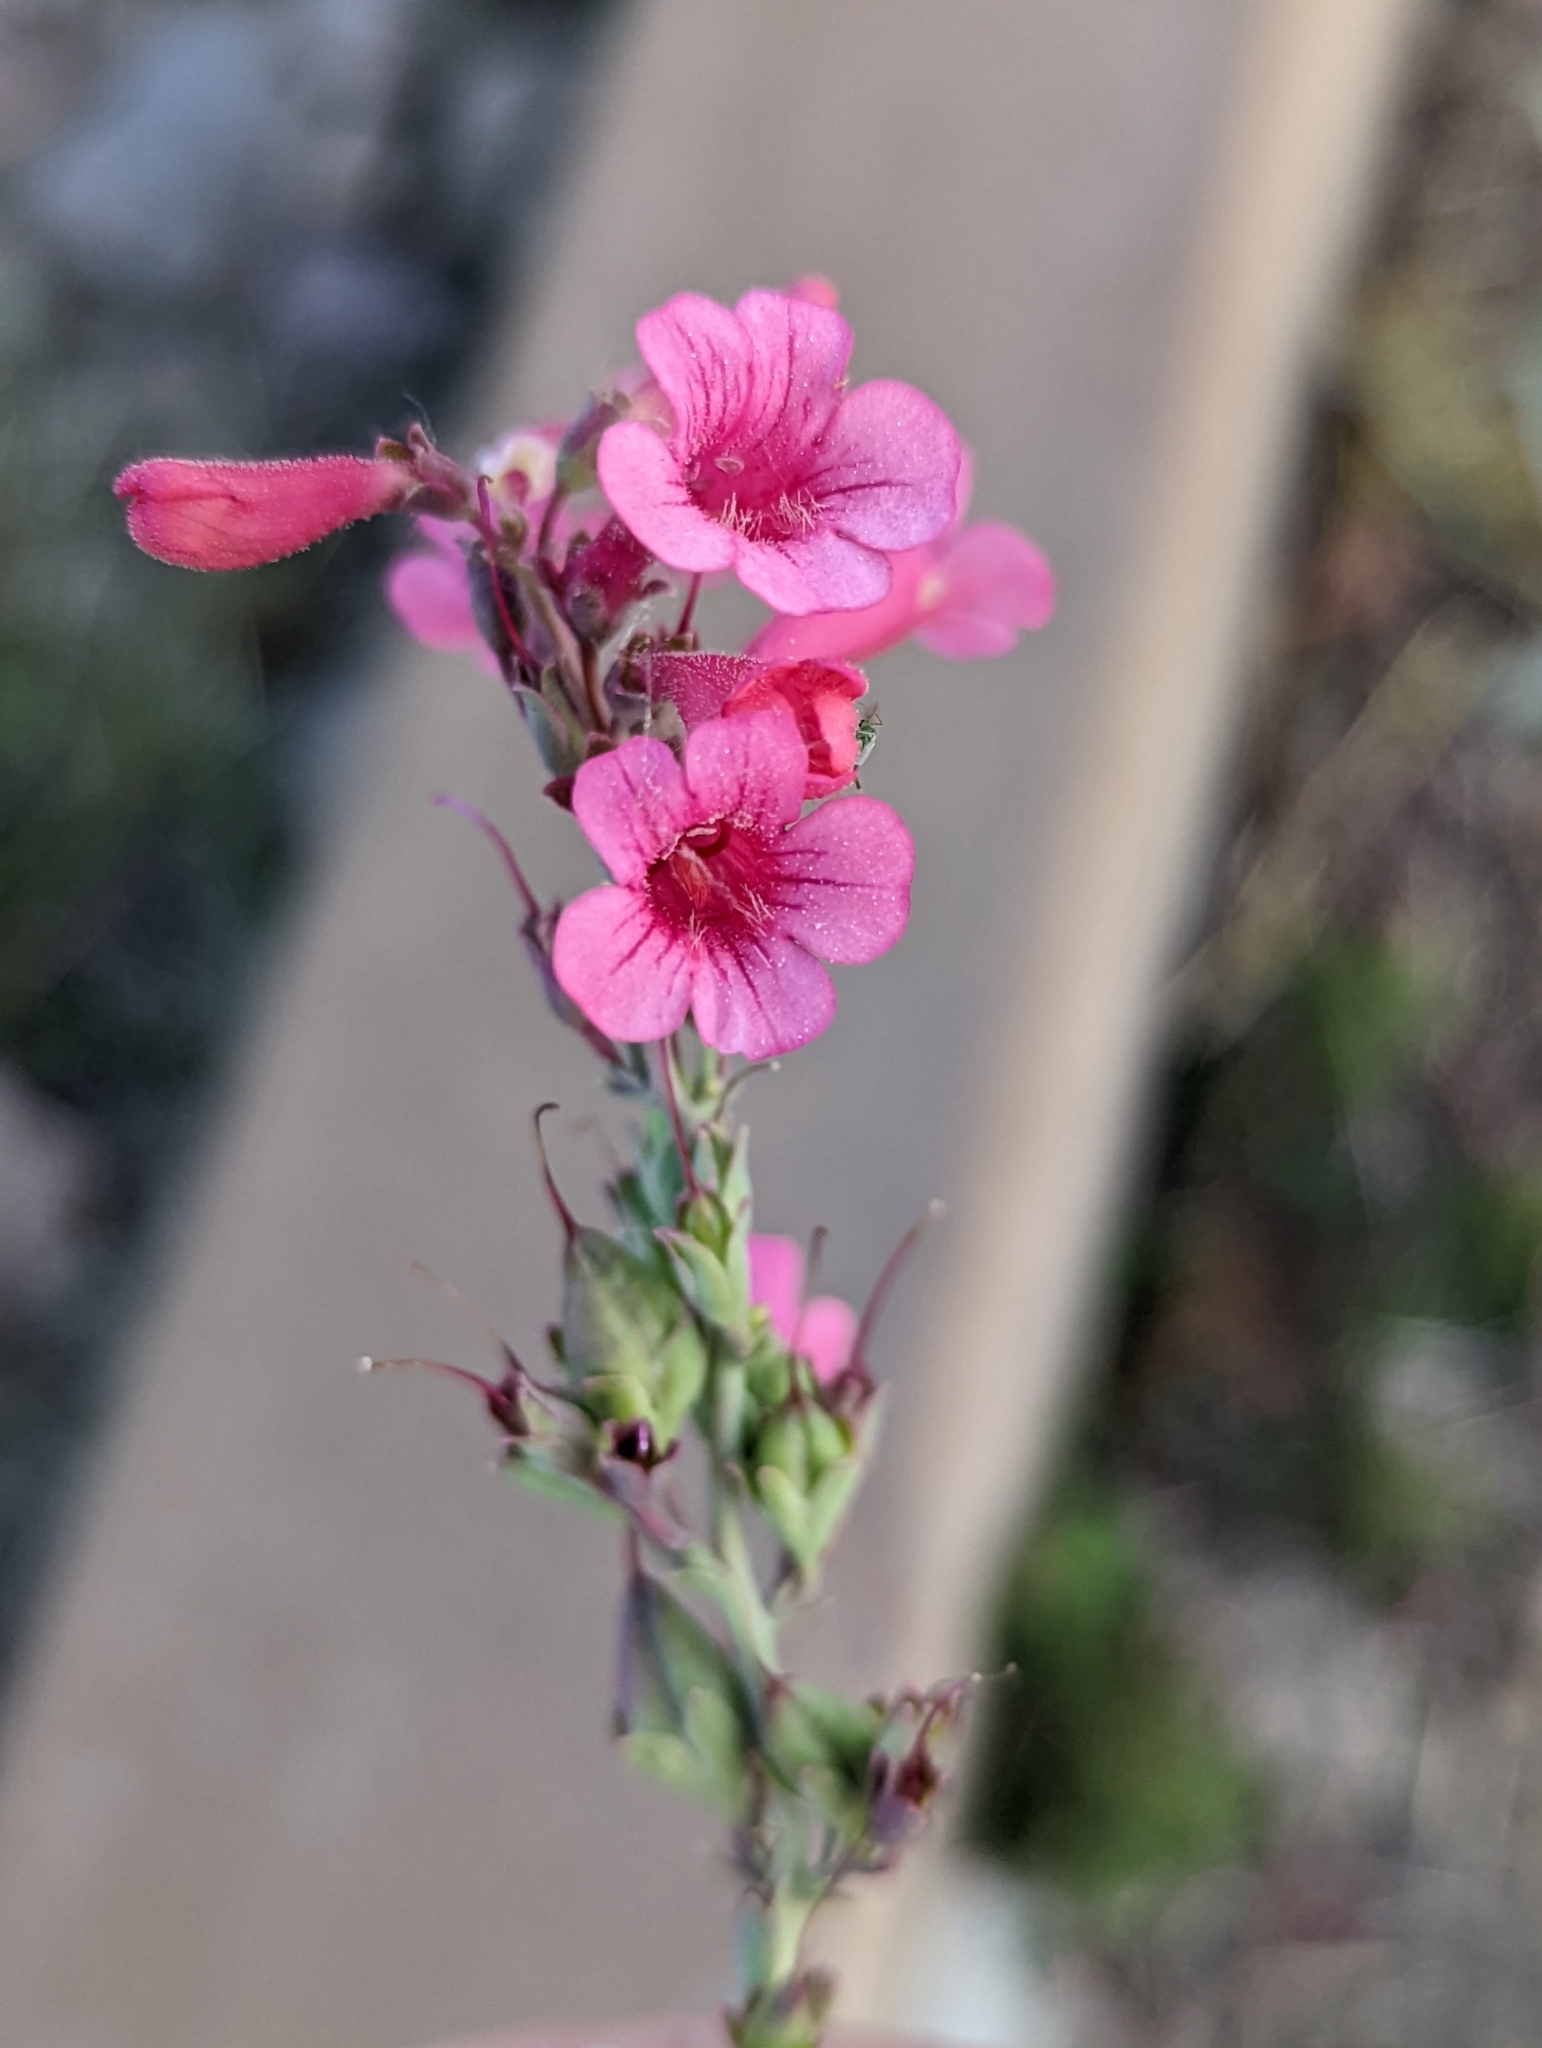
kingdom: Plantae
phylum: Tracheophyta
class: Magnoliopsida
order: Lamiales
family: Plantaginaceae
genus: Penstemon
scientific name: Penstemon parryi
